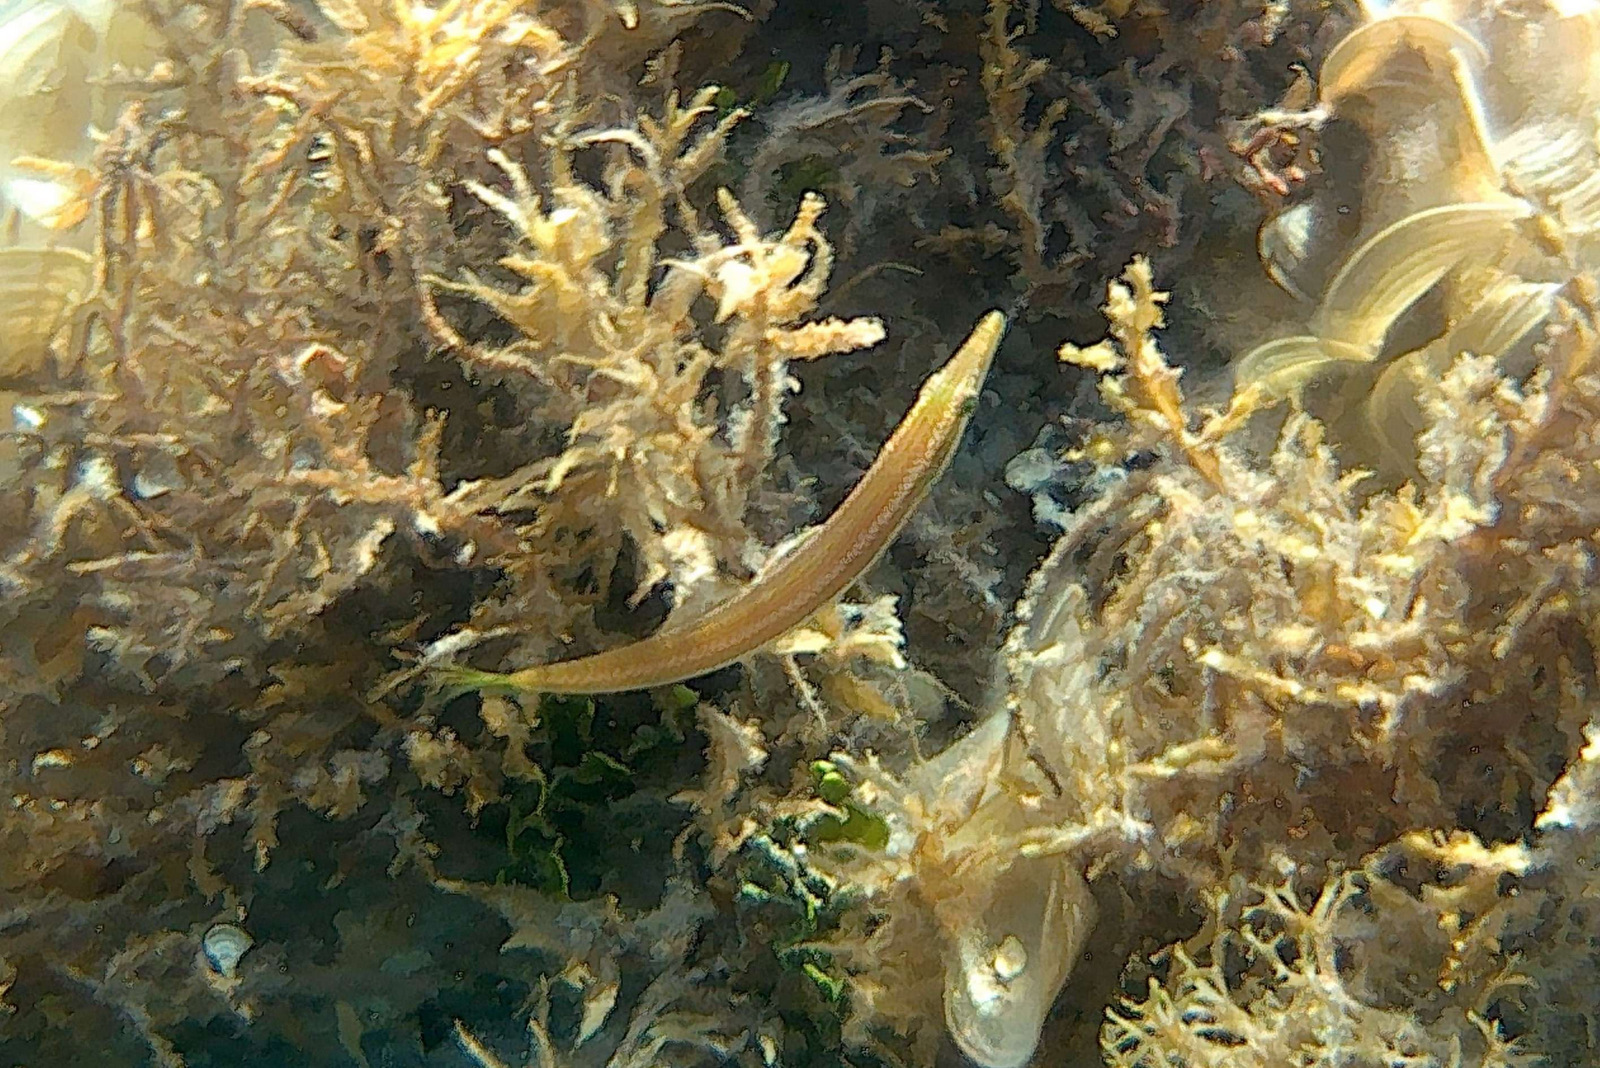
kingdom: Animalia
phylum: Chordata
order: Perciformes
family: Labridae
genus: Cheilio
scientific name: Cheilio inermis
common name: Cigar wrasse
